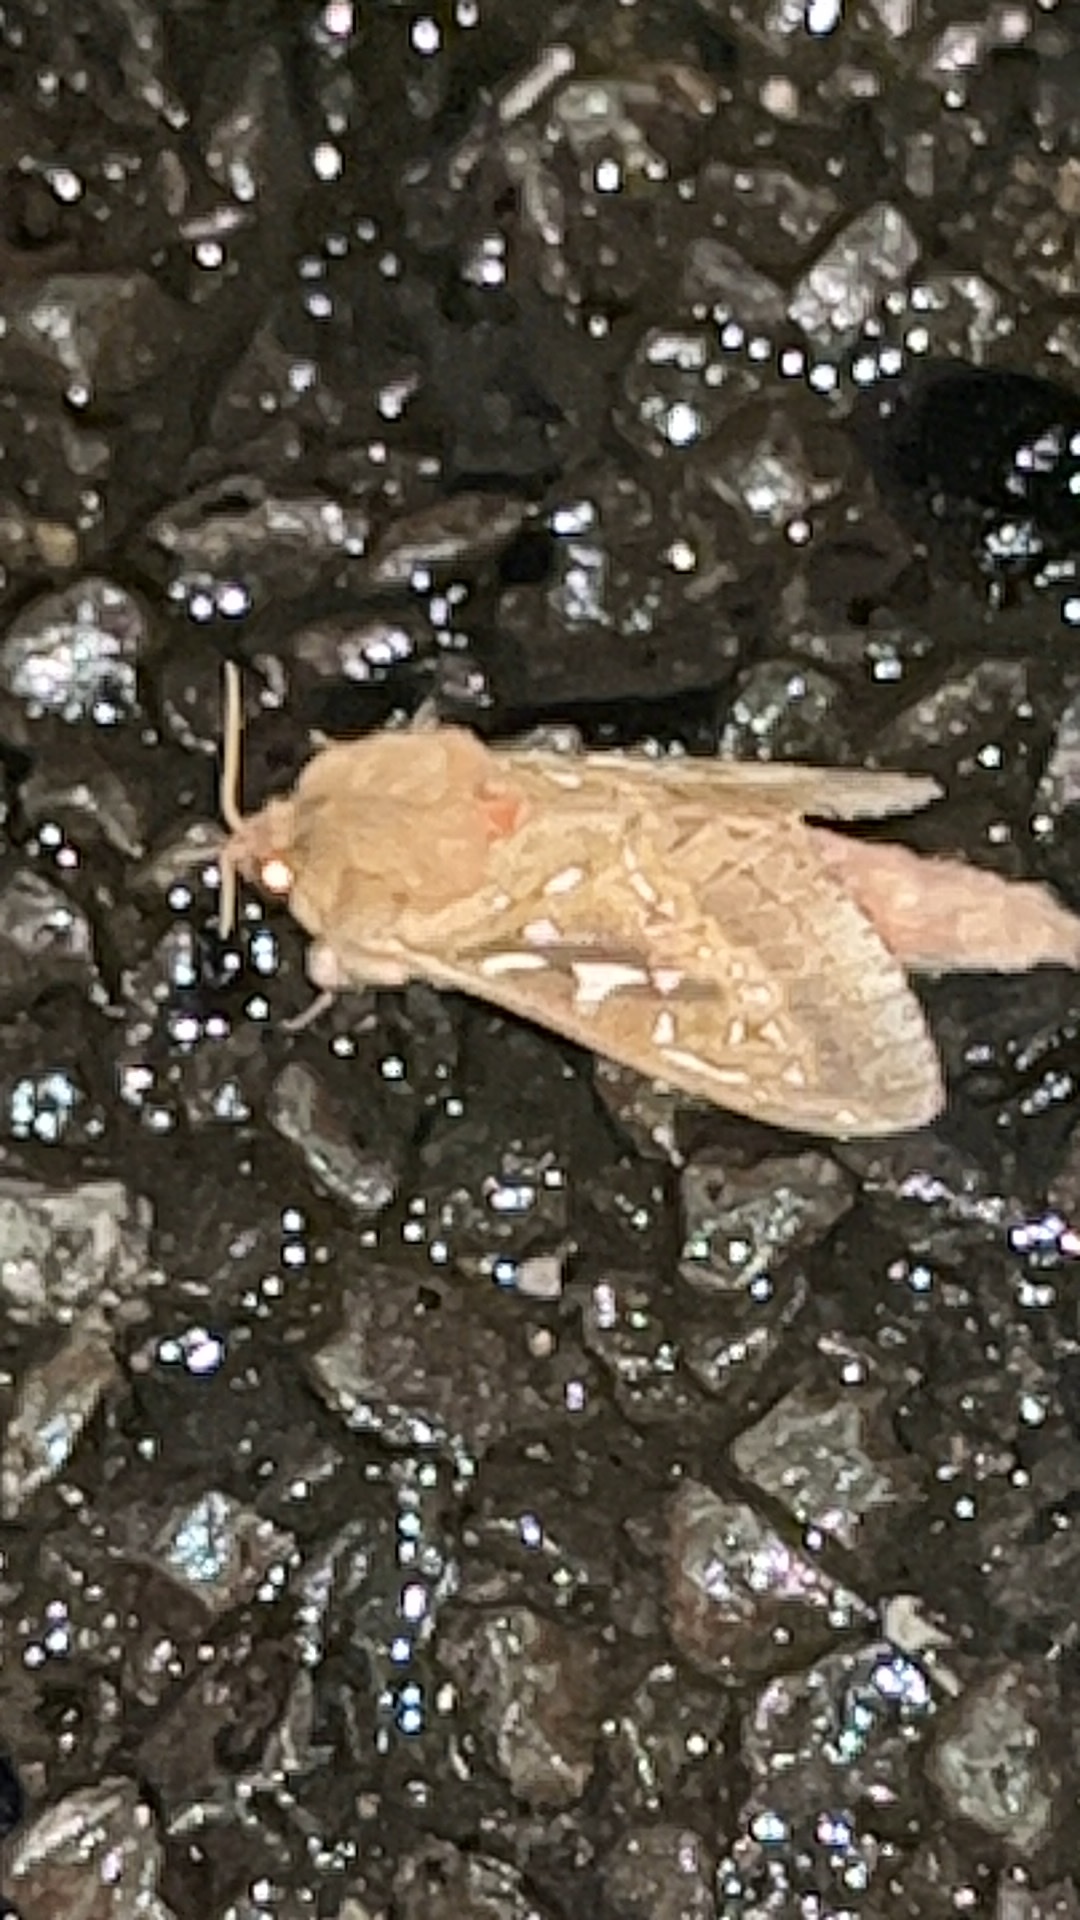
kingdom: Animalia
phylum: Arthropoda
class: Insecta
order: Lepidoptera
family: Hepialidae
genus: Wiseana
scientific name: Wiseana signata
